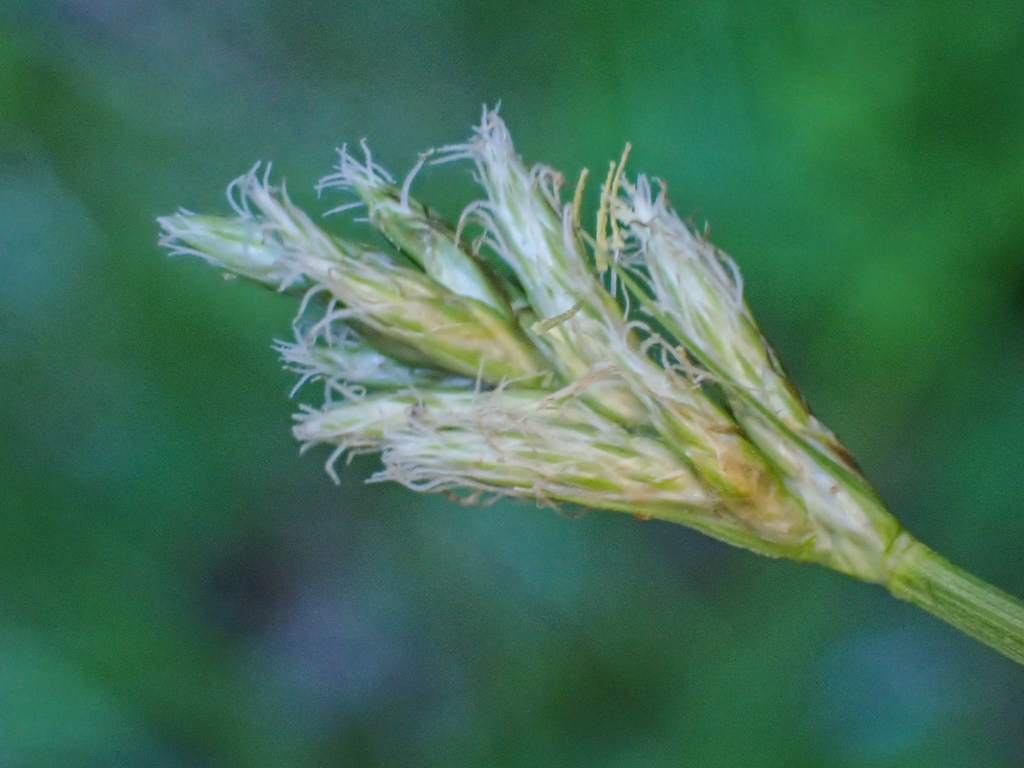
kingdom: Plantae
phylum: Tracheophyta
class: Liliopsida
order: Poales
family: Cyperaceae
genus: Carex
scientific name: Carex leptopoda
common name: Short-scale sedge
